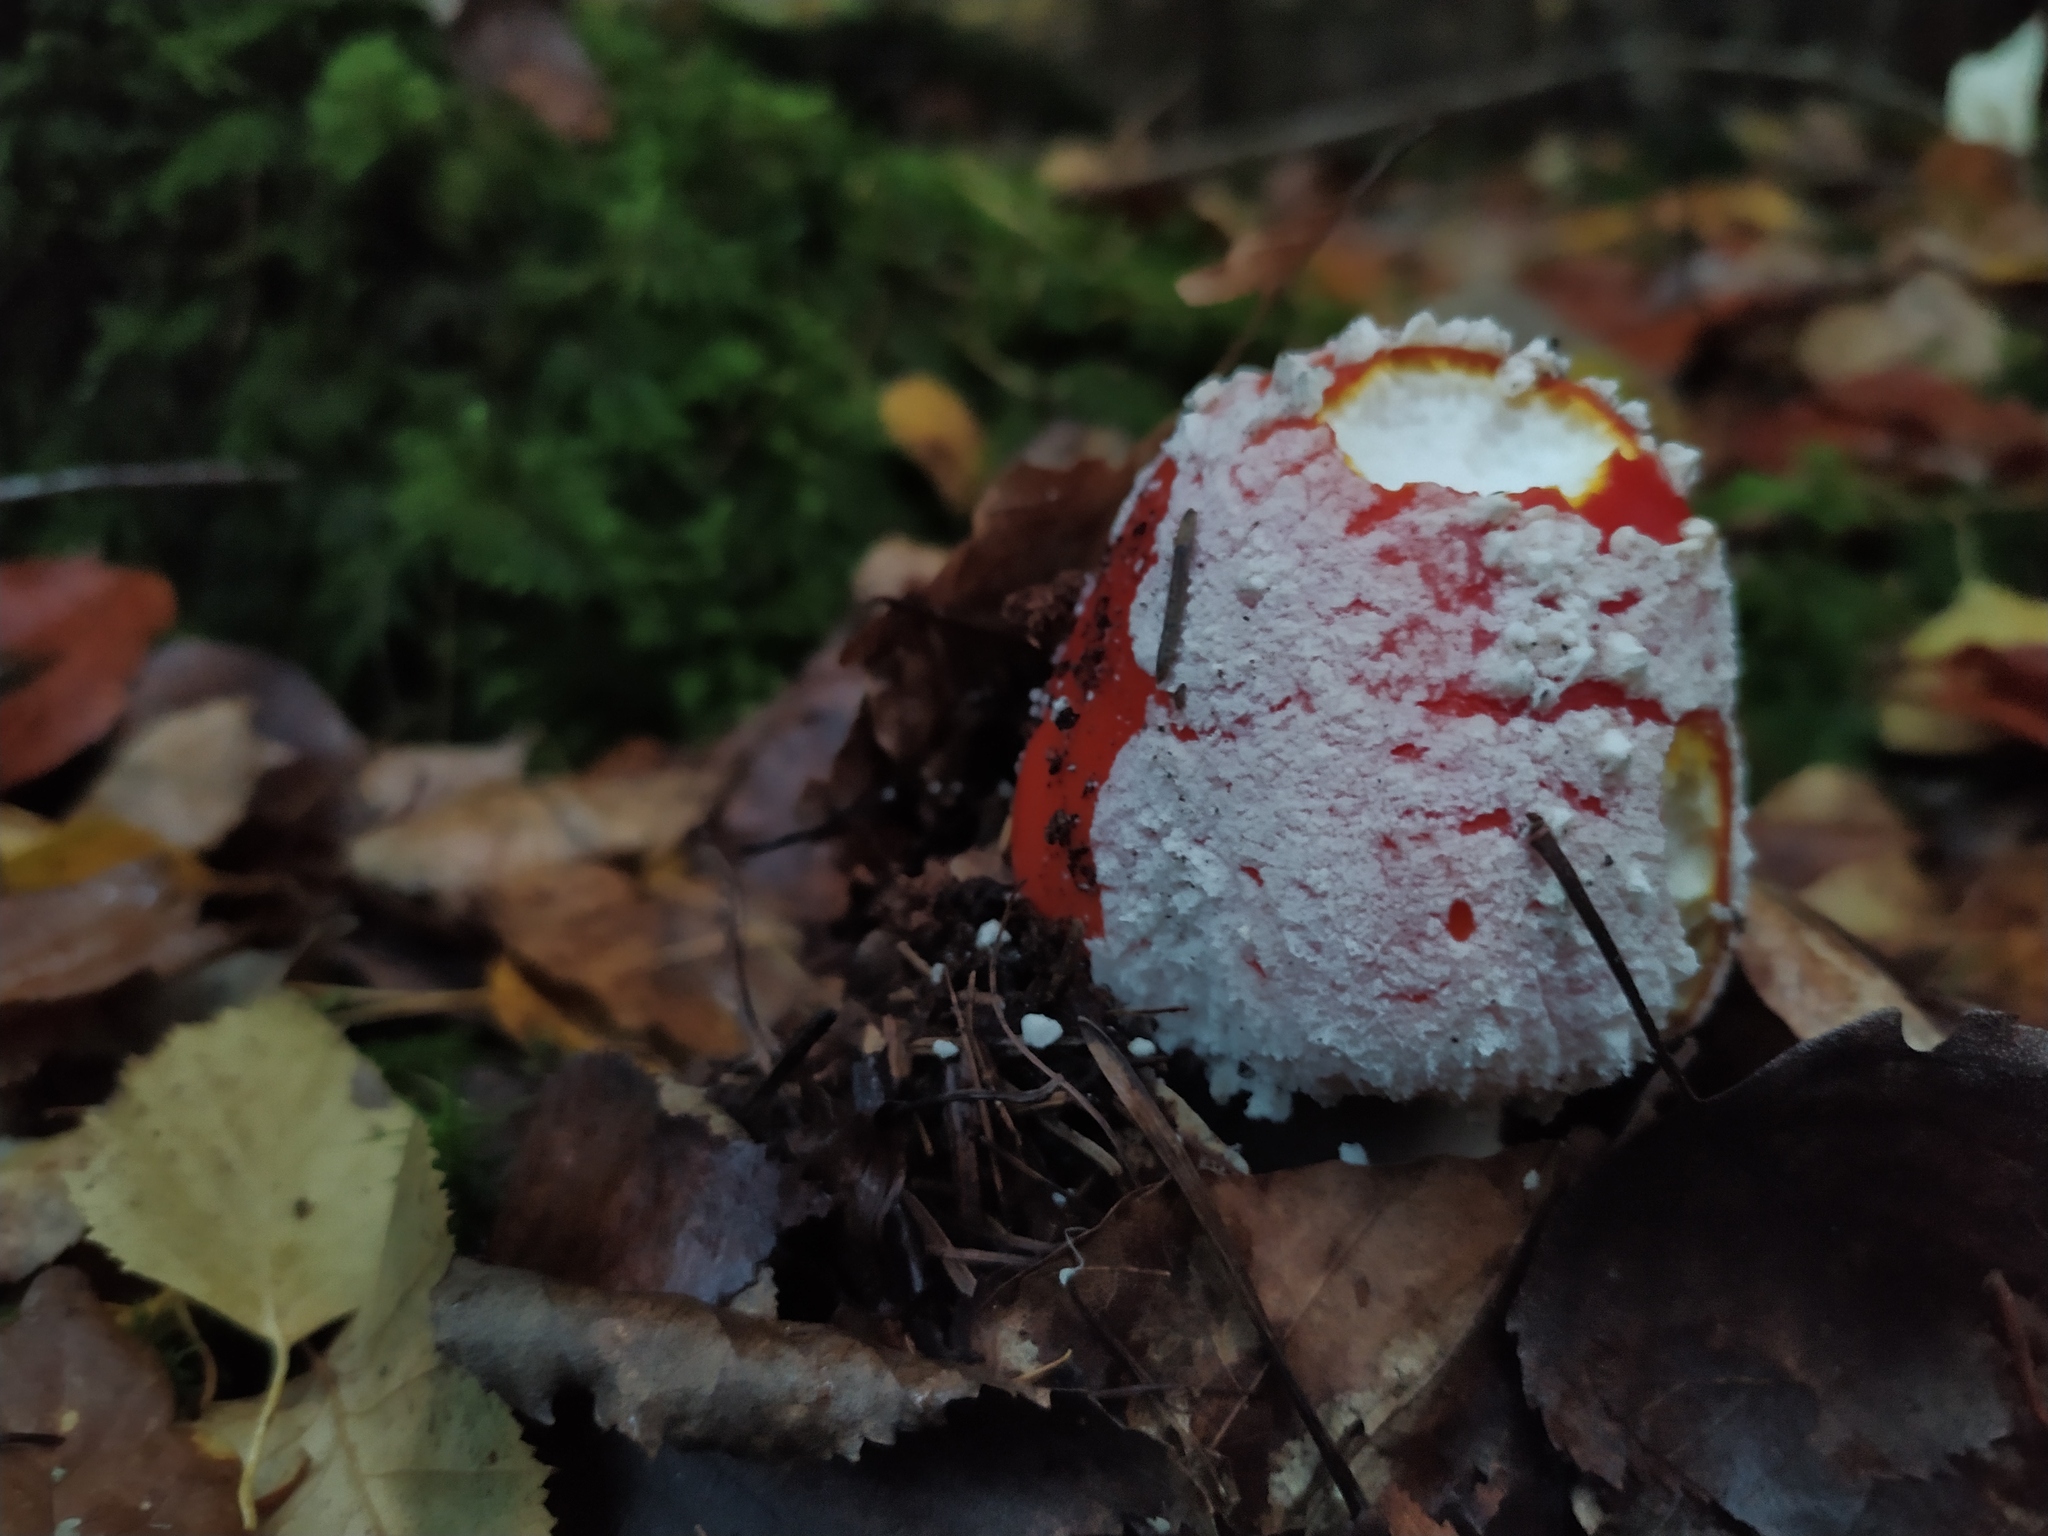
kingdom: Fungi
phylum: Basidiomycota
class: Agaricomycetes
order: Agaricales
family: Amanitaceae
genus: Amanita
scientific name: Amanita muscaria
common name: Fly agaric
